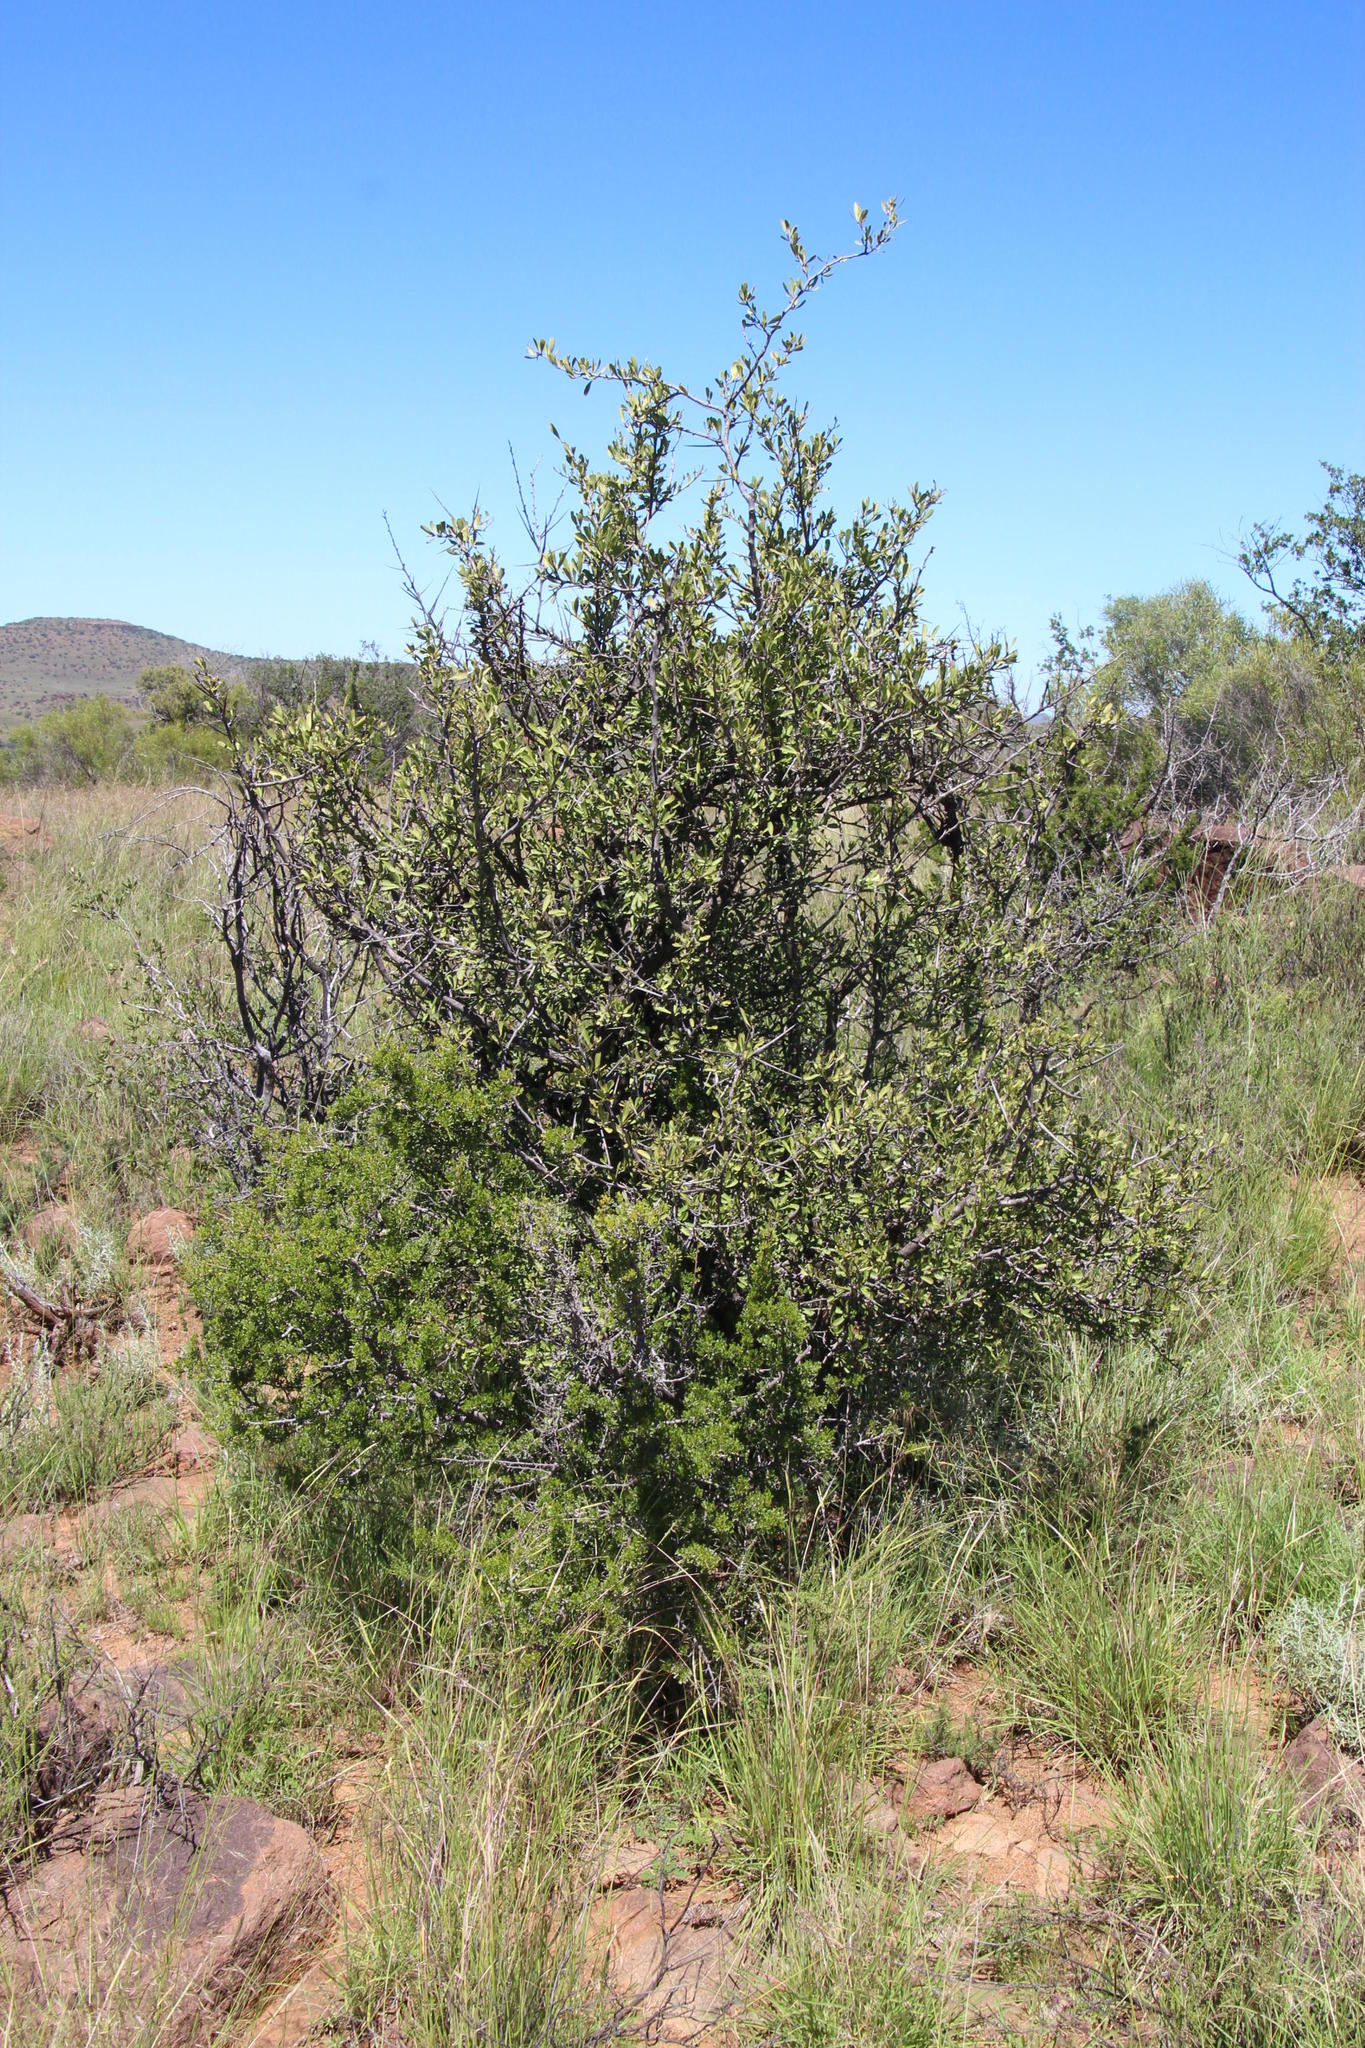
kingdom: Plantae
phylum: Tracheophyta
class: Magnoliopsida
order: Celastrales
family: Celastraceae
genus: Gymnosporia
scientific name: Gymnosporia buxifolia
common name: Common spike-thorn
